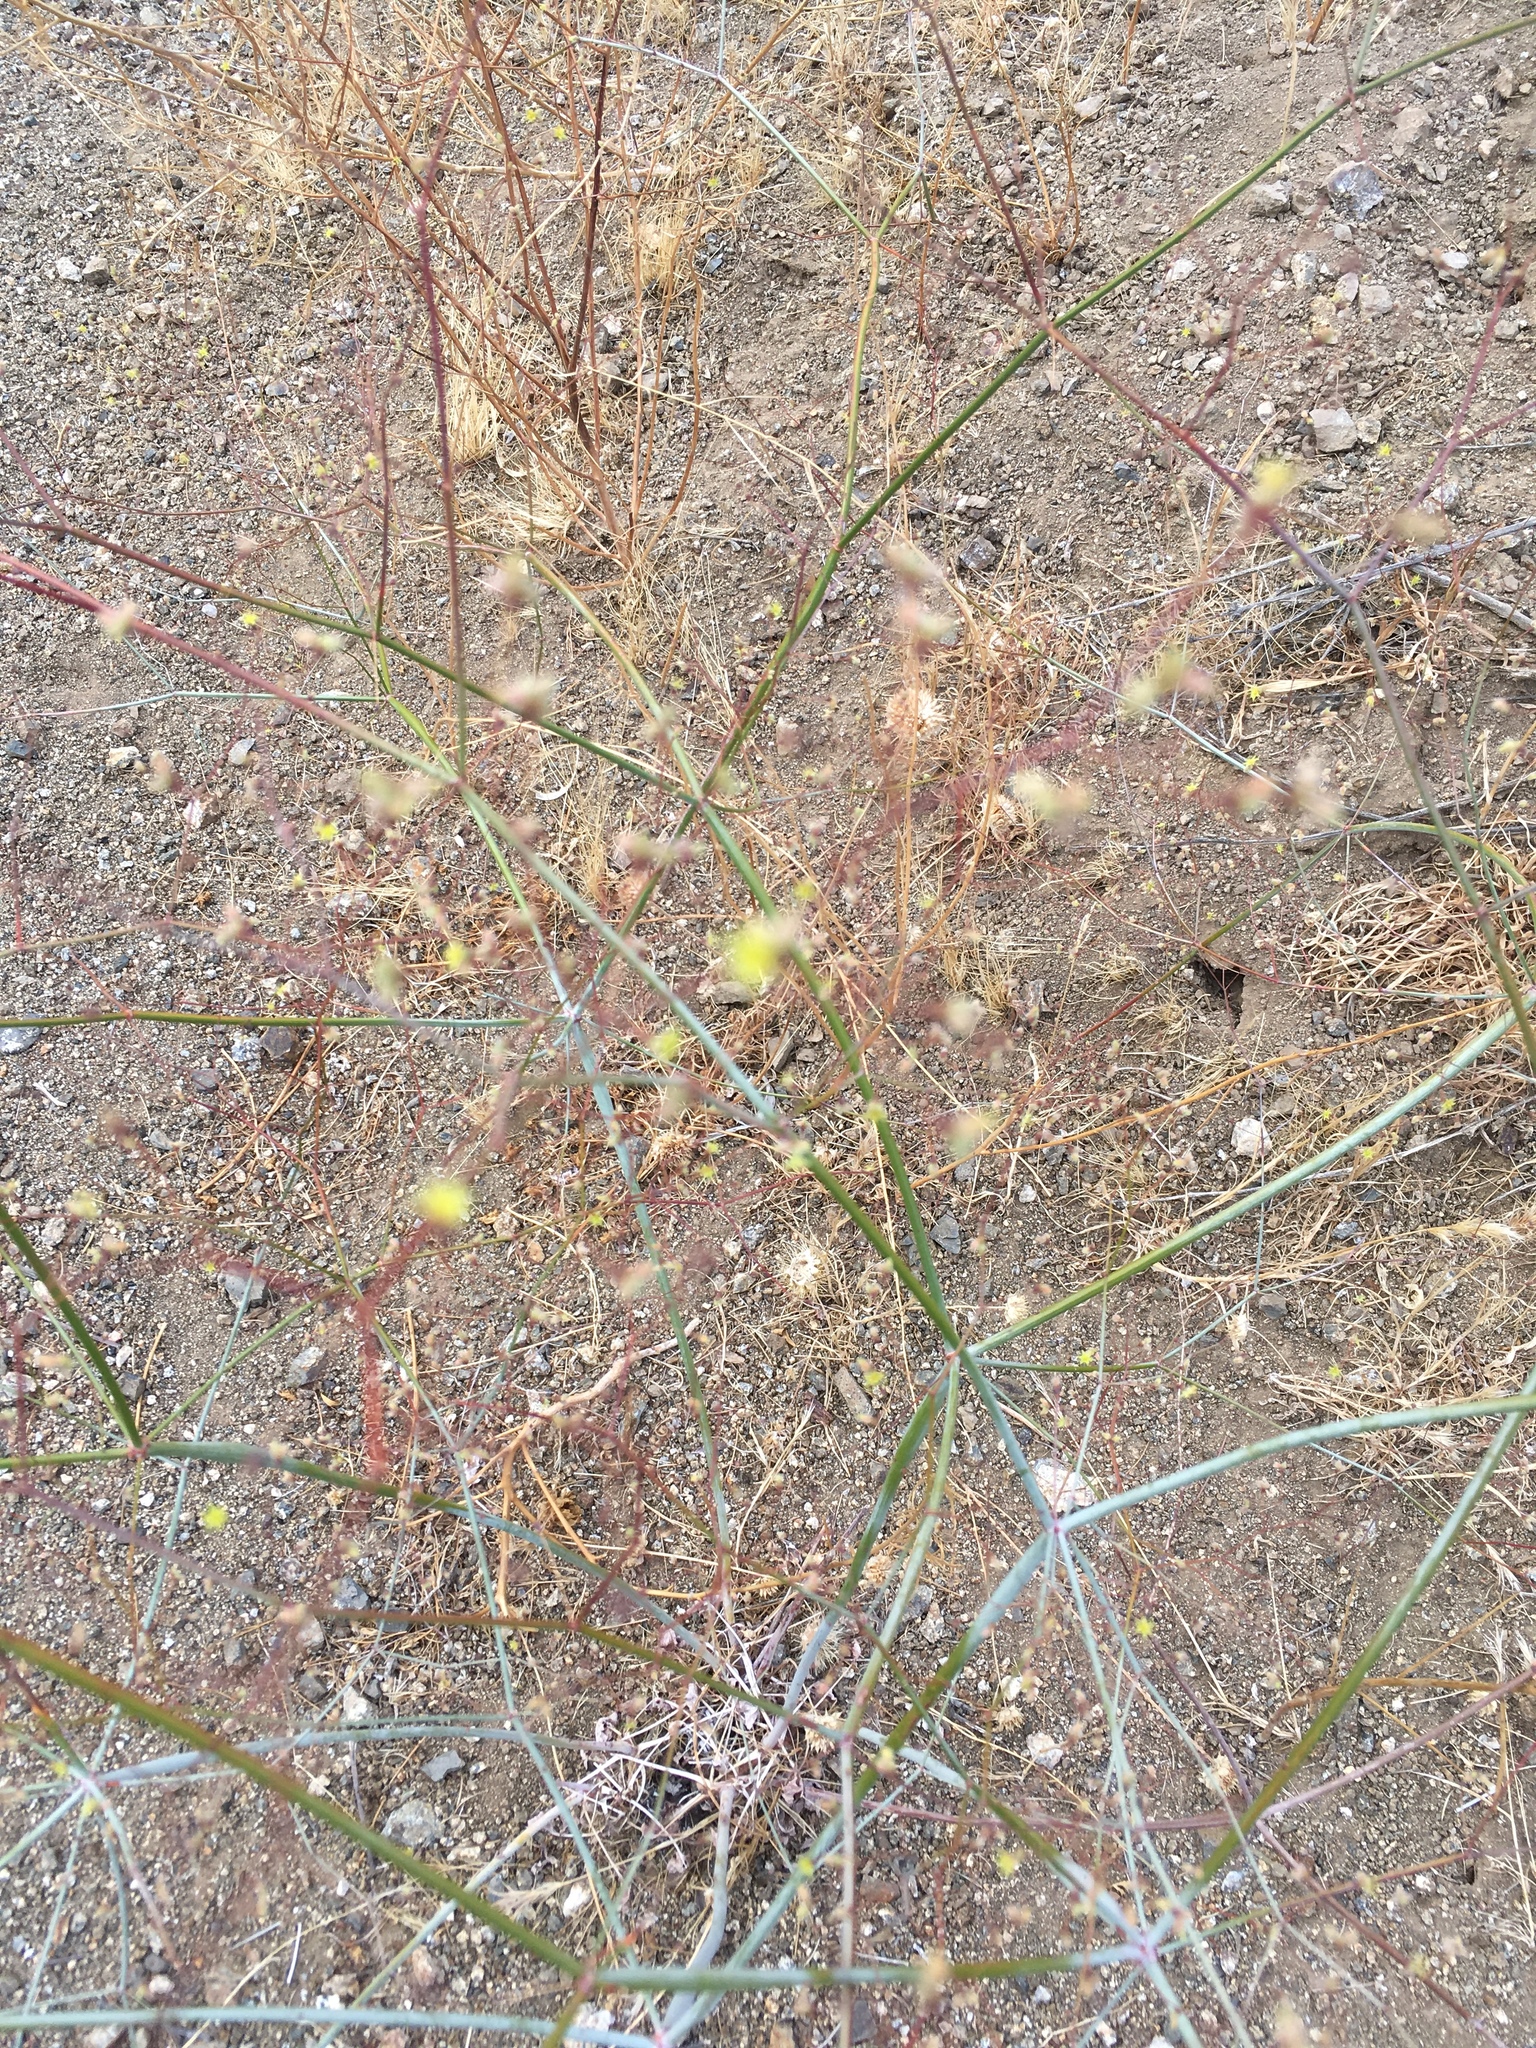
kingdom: Plantae
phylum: Tracheophyta
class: Magnoliopsida
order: Caryophyllales
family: Polygonaceae
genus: Eriogonum
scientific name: Eriogonum inflatum
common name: Desert trumpet
